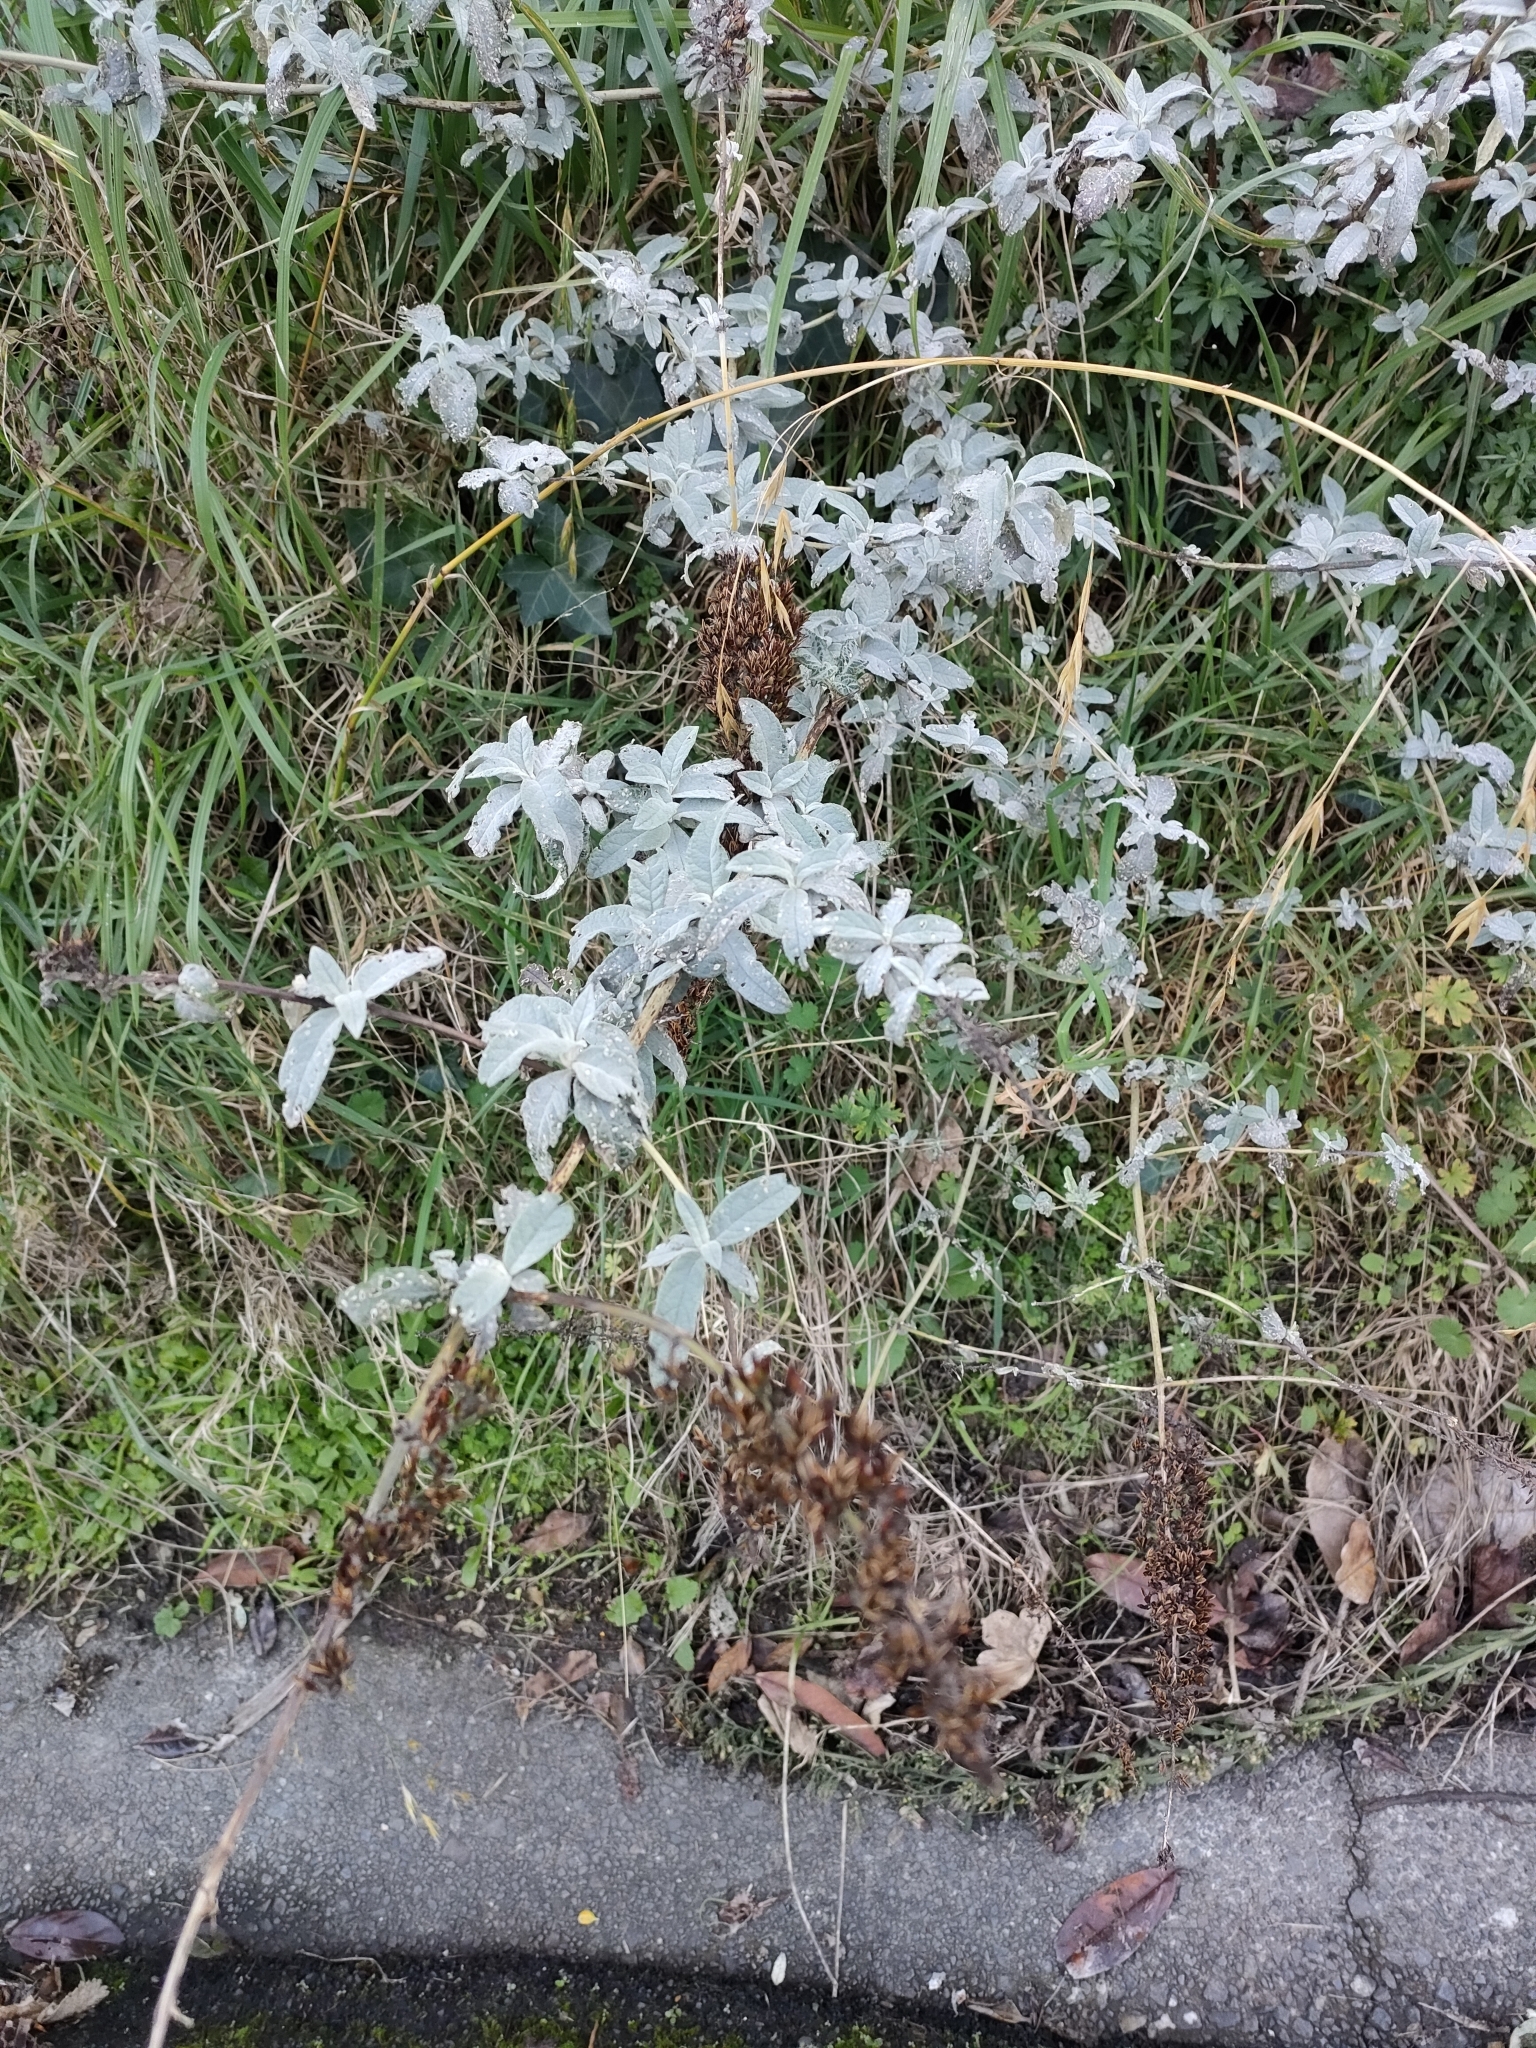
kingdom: Plantae
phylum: Tracheophyta
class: Magnoliopsida
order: Lamiales
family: Scrophulariaceae
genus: Buddleja
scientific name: Buddleja davidii
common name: Butterfly-bush
